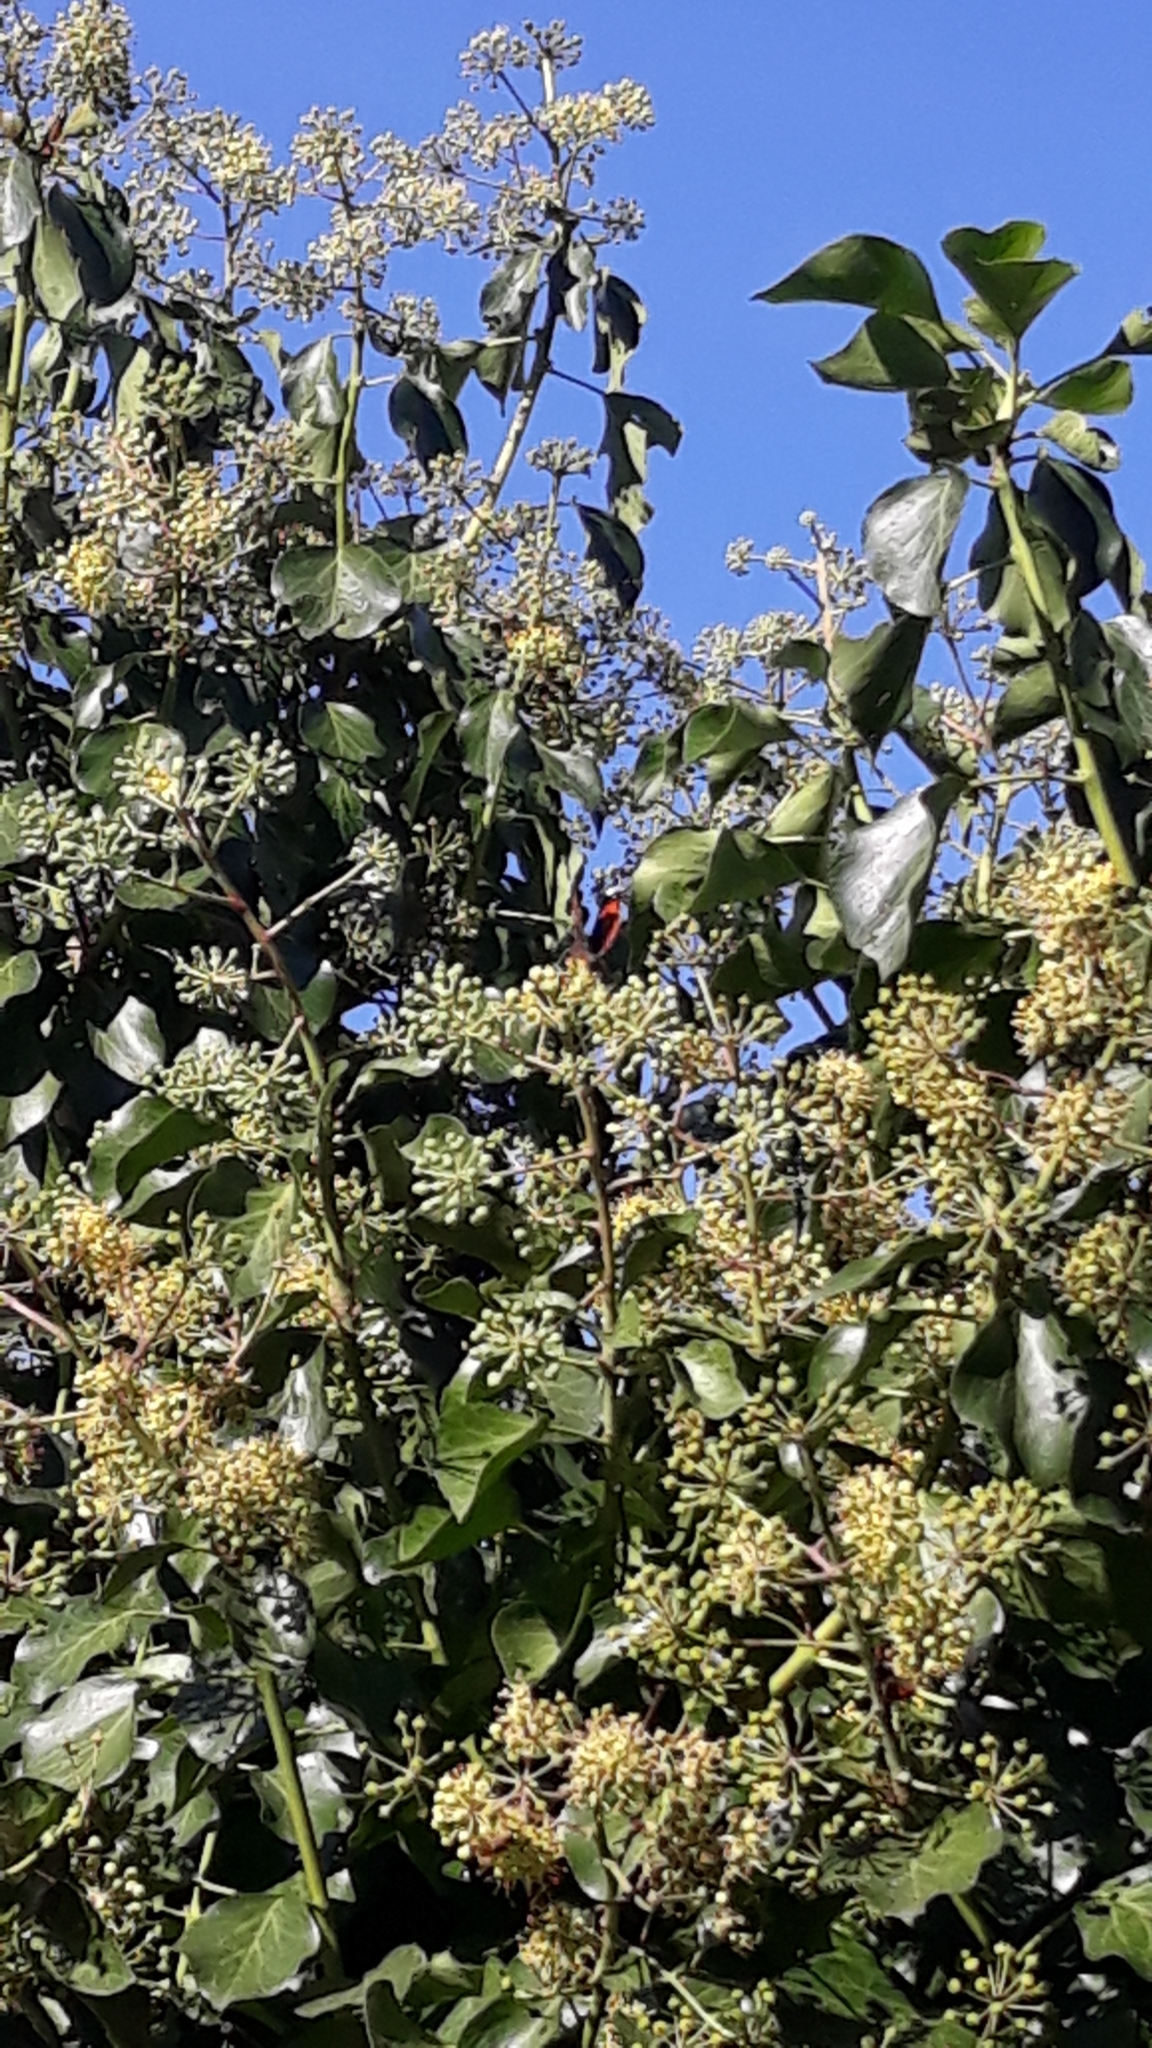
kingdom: Animalia
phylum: Arthropoda
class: Insecta
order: Lepidoptera
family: Nymphalidae
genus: Vanessa
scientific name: Vanessa atalanta
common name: Red admiral
